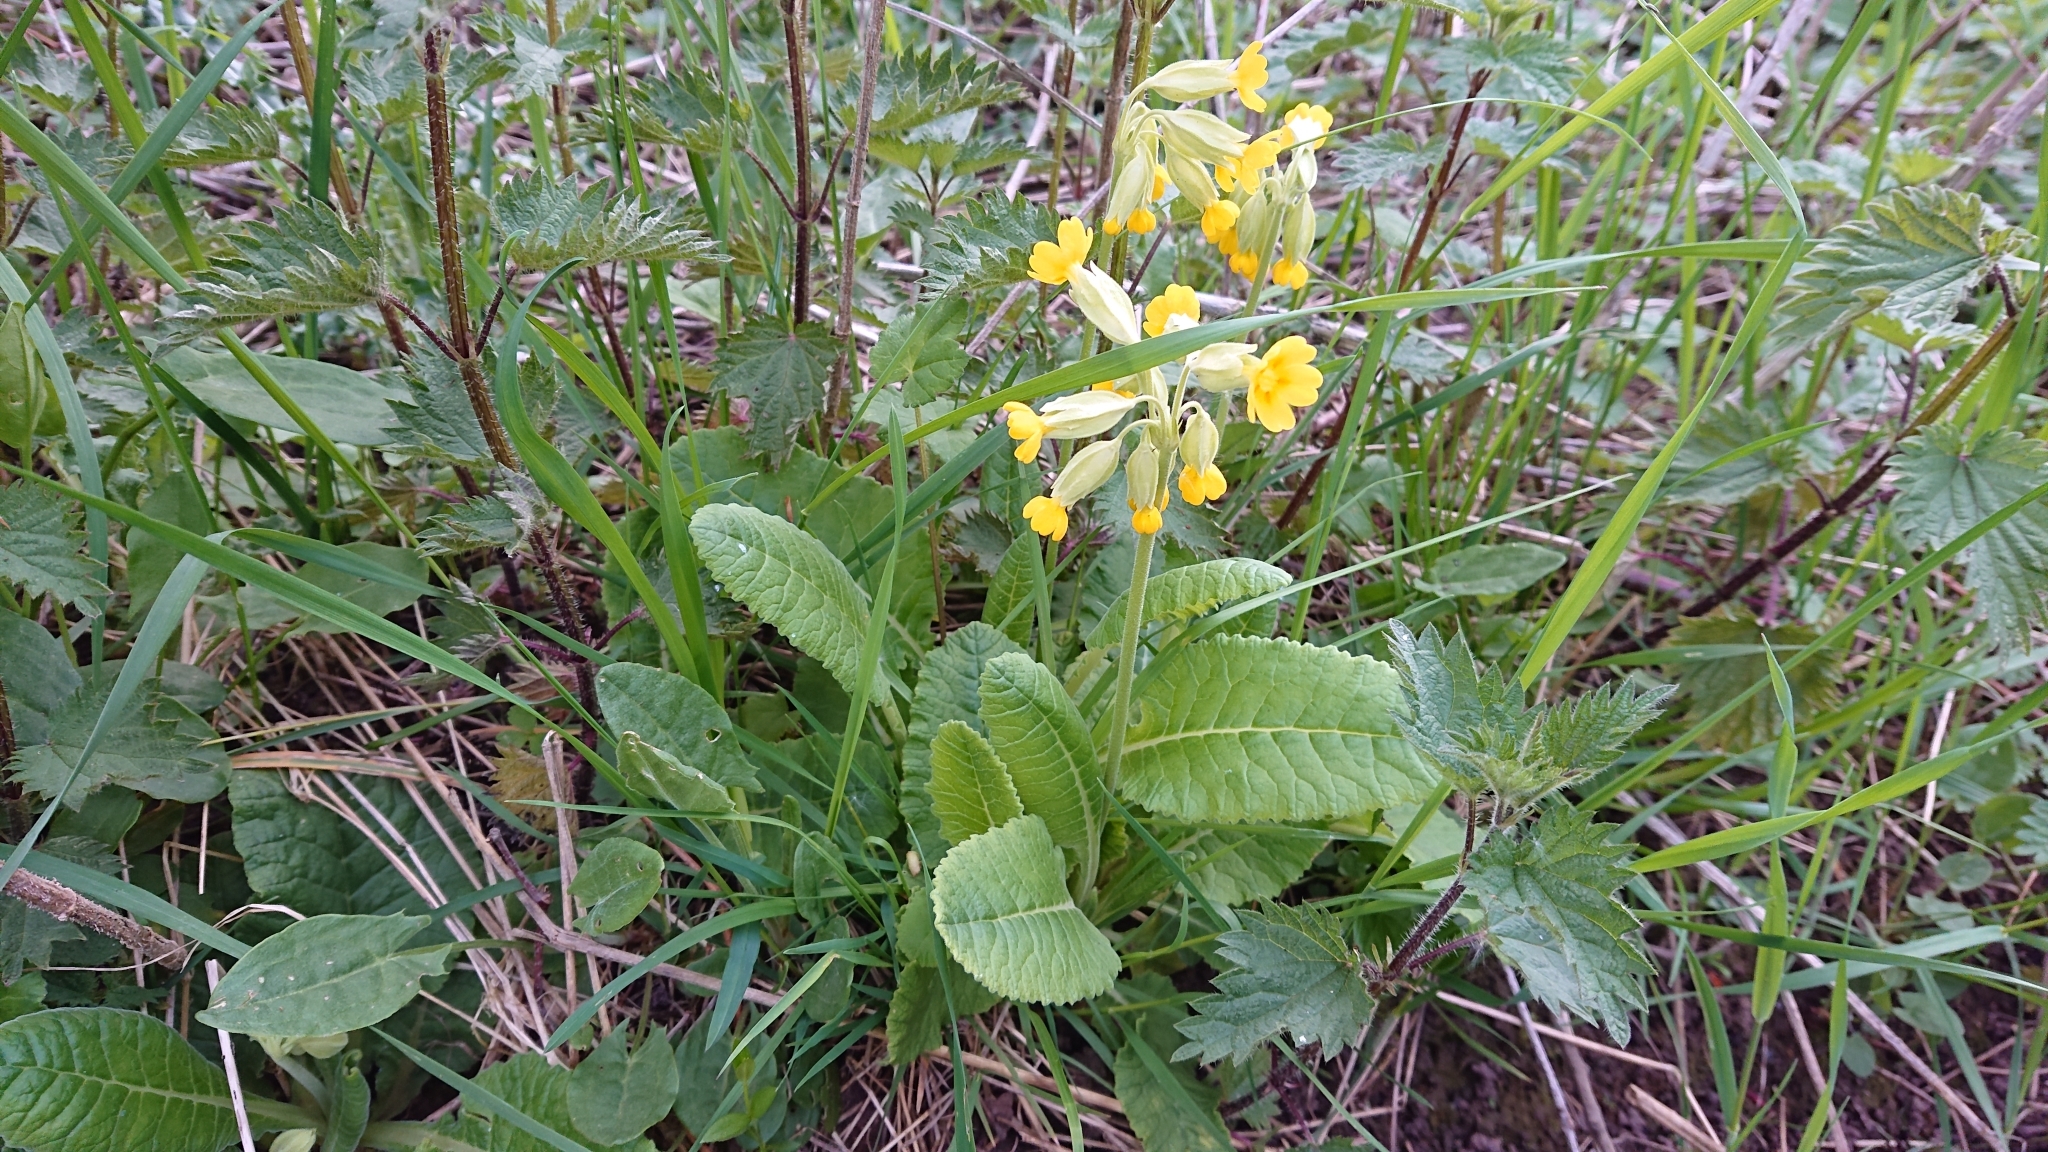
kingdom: Plantae
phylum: Tracheophyta
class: Magnoliopsida
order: Ericales
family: Primulaceae
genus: Primula
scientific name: Primula veris
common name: Cowslip
